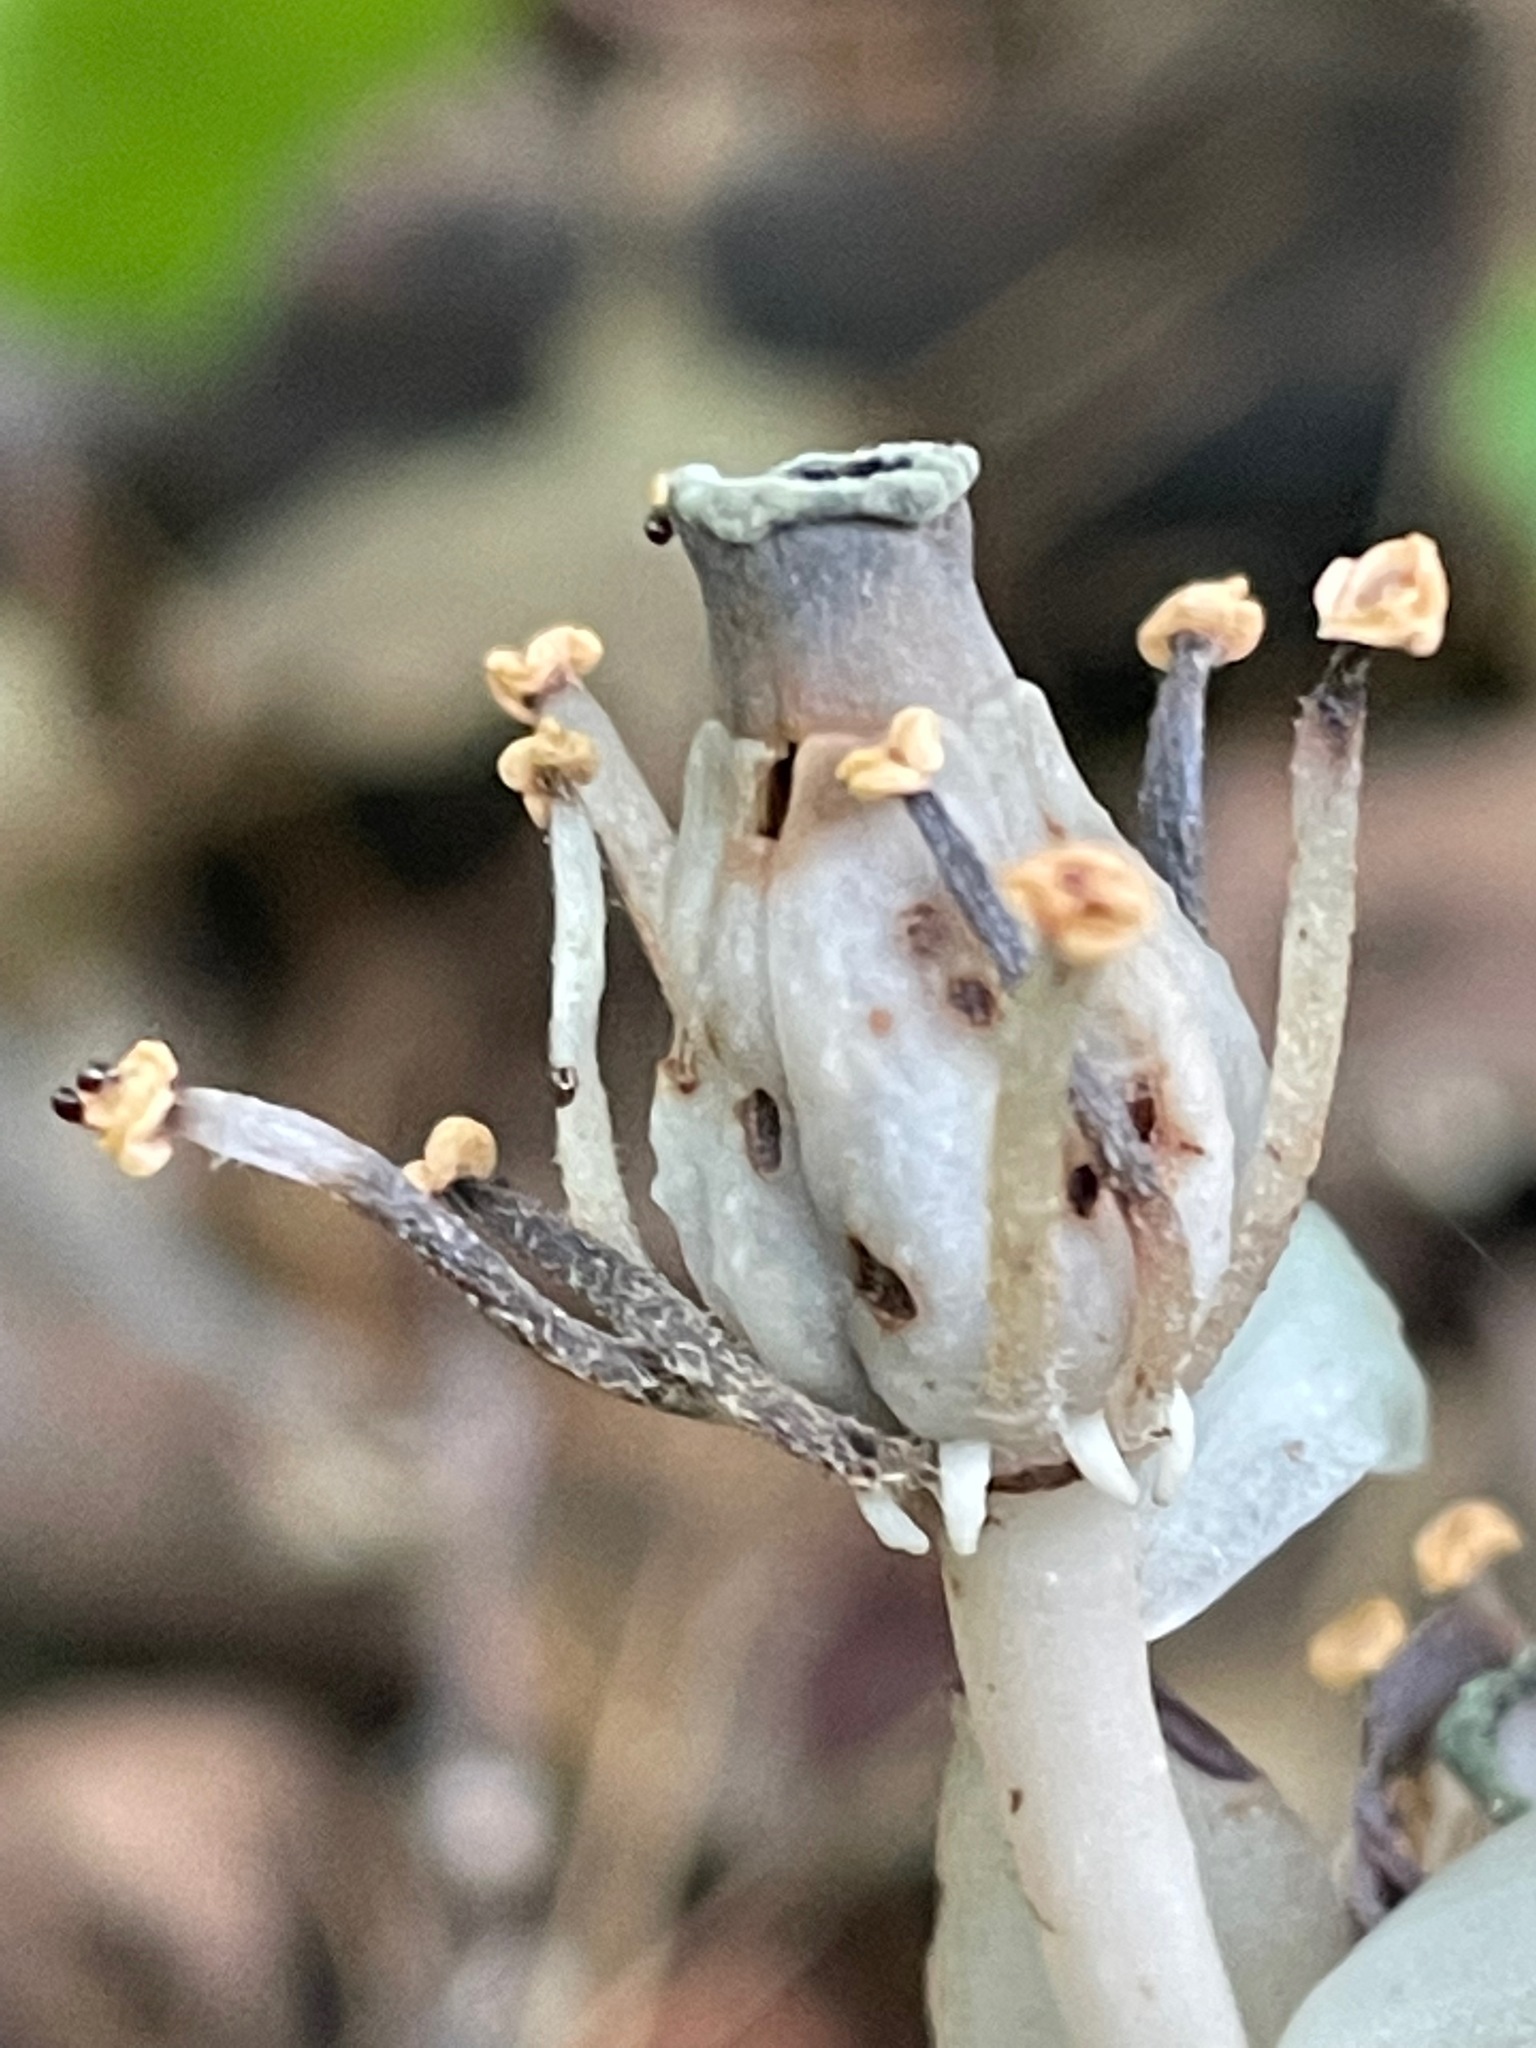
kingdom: Plantae
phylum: Tracheophyta
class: Magnoliopsida
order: Ericales
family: Ericaceae
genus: Monotropa
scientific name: Monotropa uniflora
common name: Convulsion root
